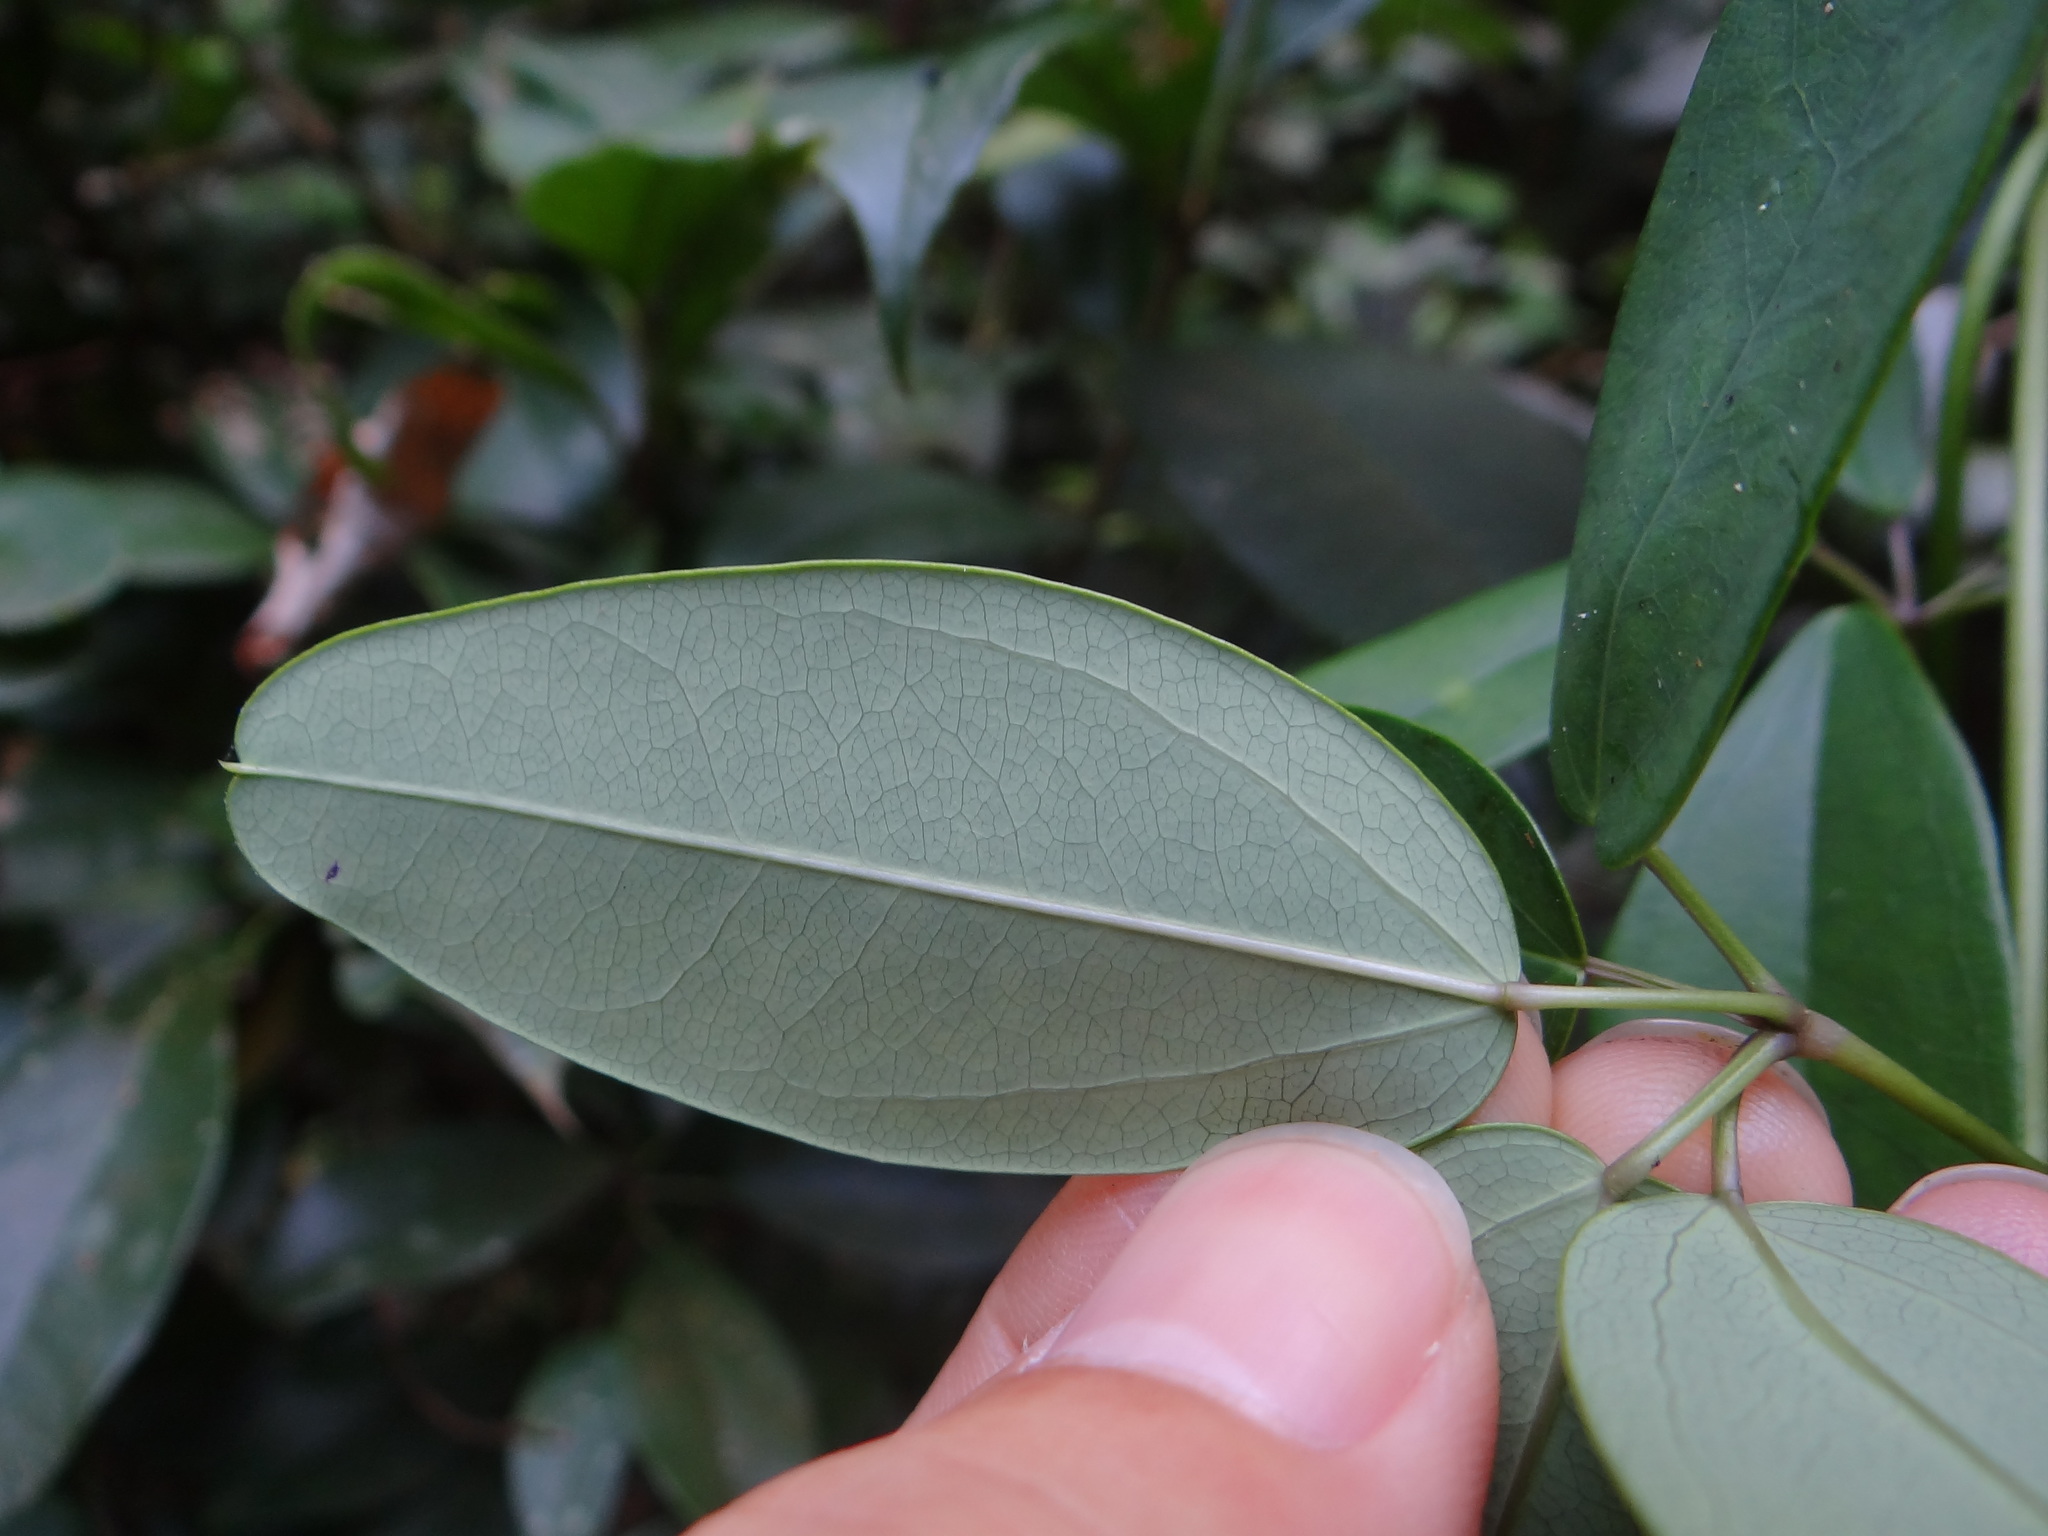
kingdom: Plantae
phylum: Tracheophyta
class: Magnoliopsida
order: Ranunculales
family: Lardizabalaceae
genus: Akebia
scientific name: Akebia longeracemosa
